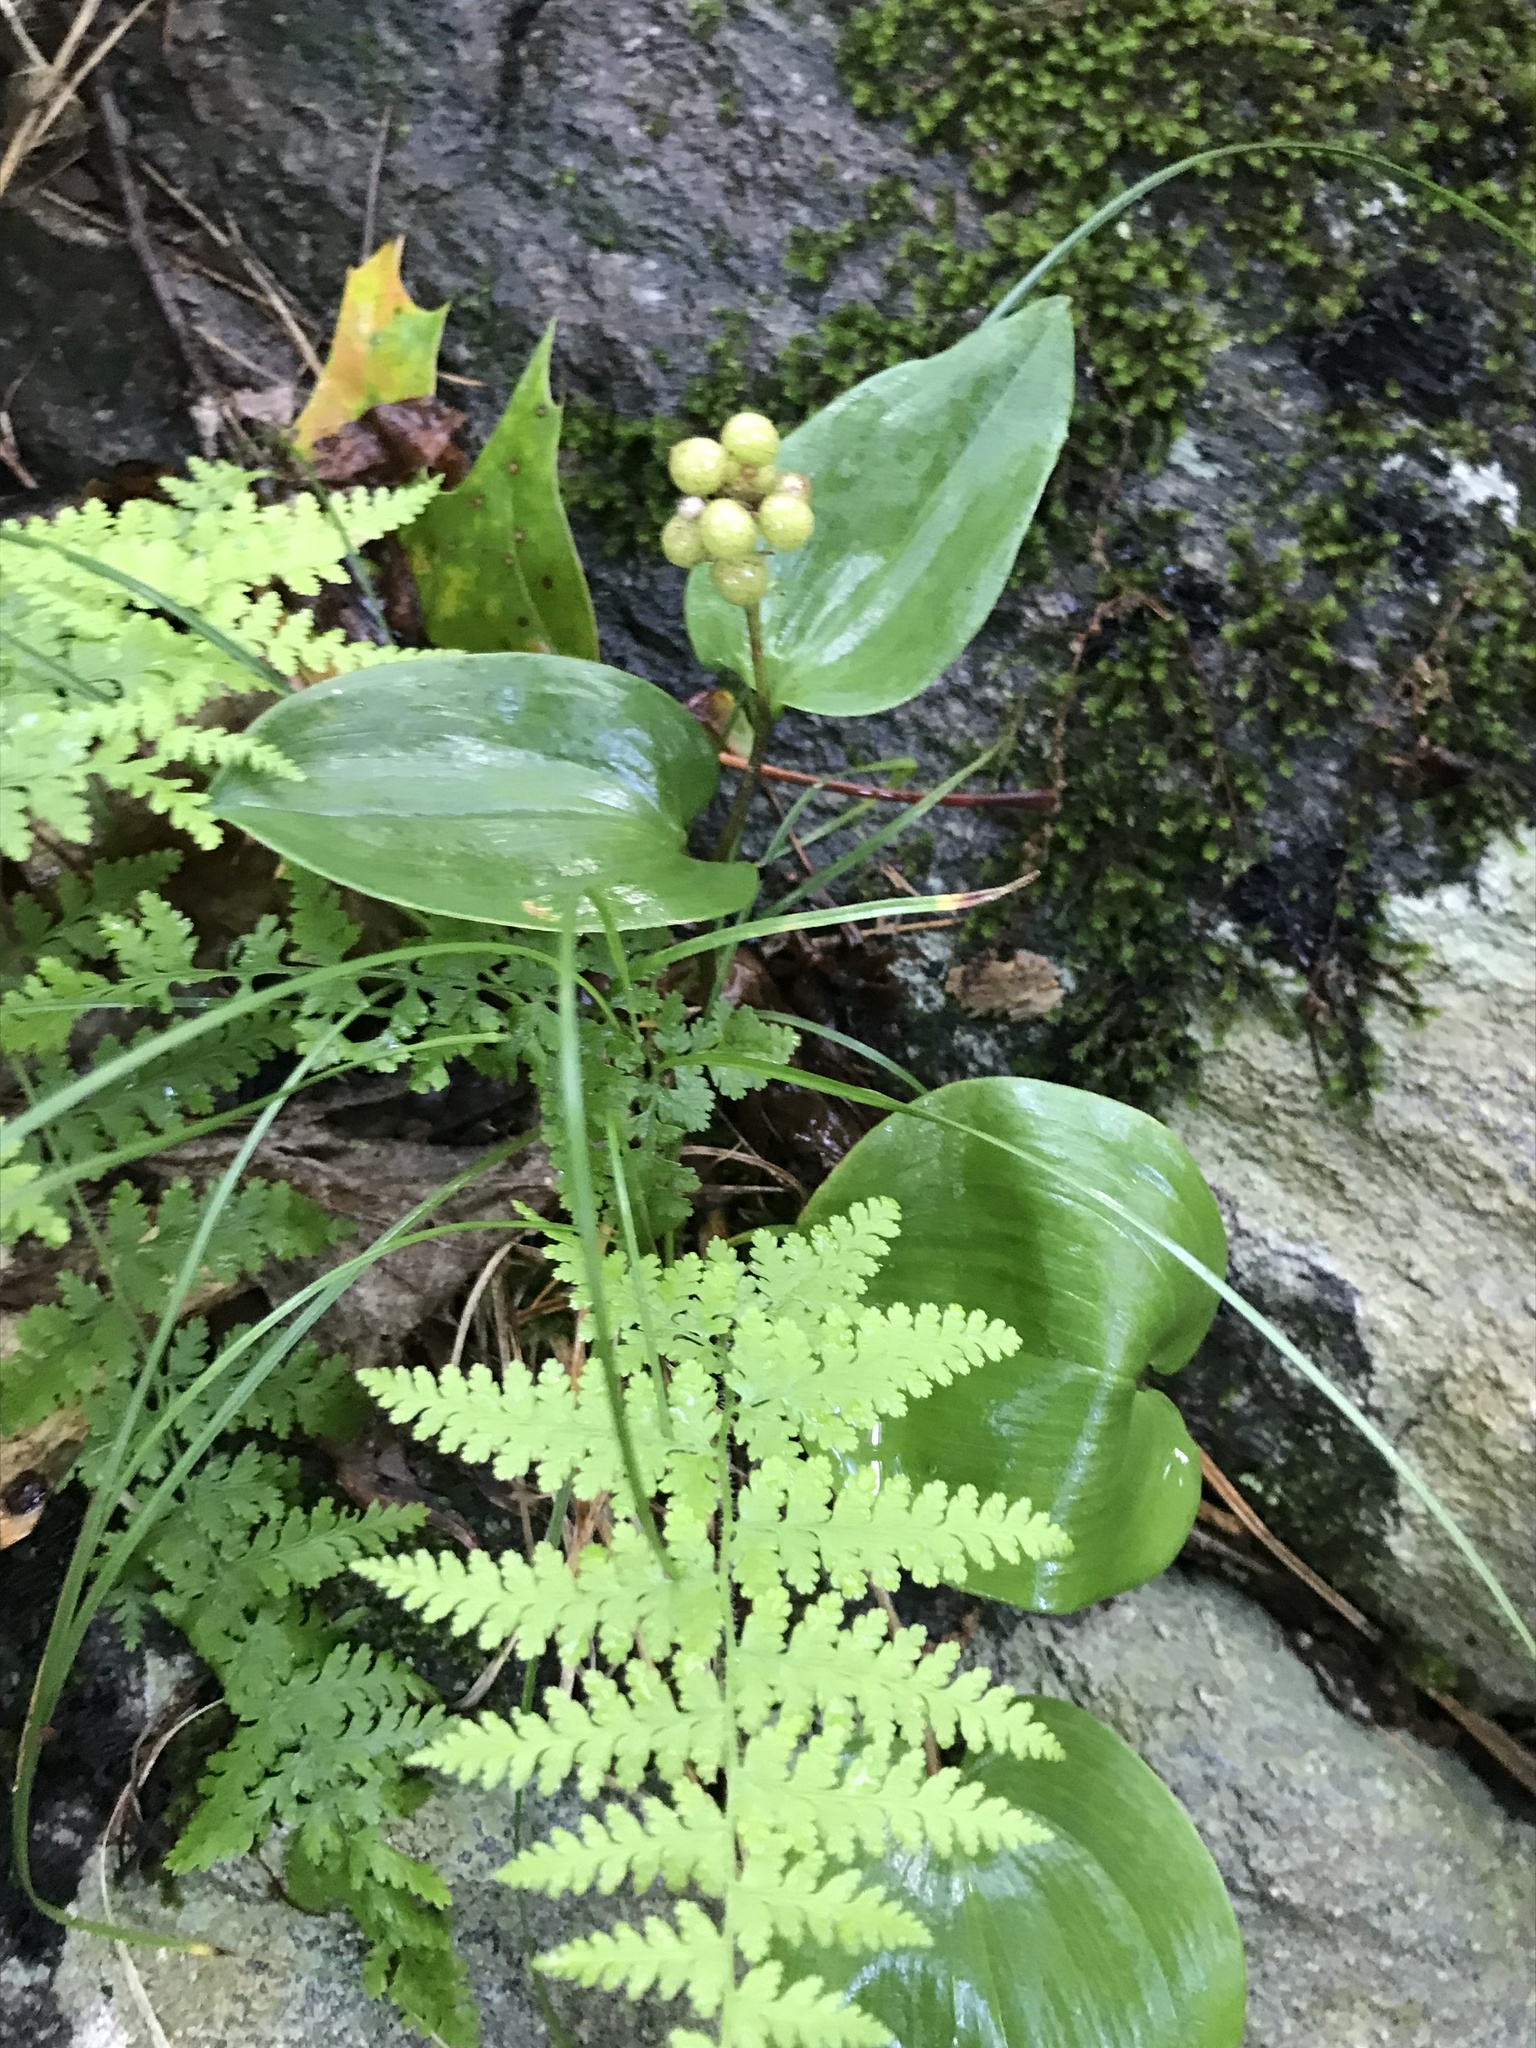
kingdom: Plantae
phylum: Tracheophyta
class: Liliopsida
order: Asparagales
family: Asparagaceae
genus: Maianthemum
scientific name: Maianthemum canadense
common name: False lily-of-the-valley
